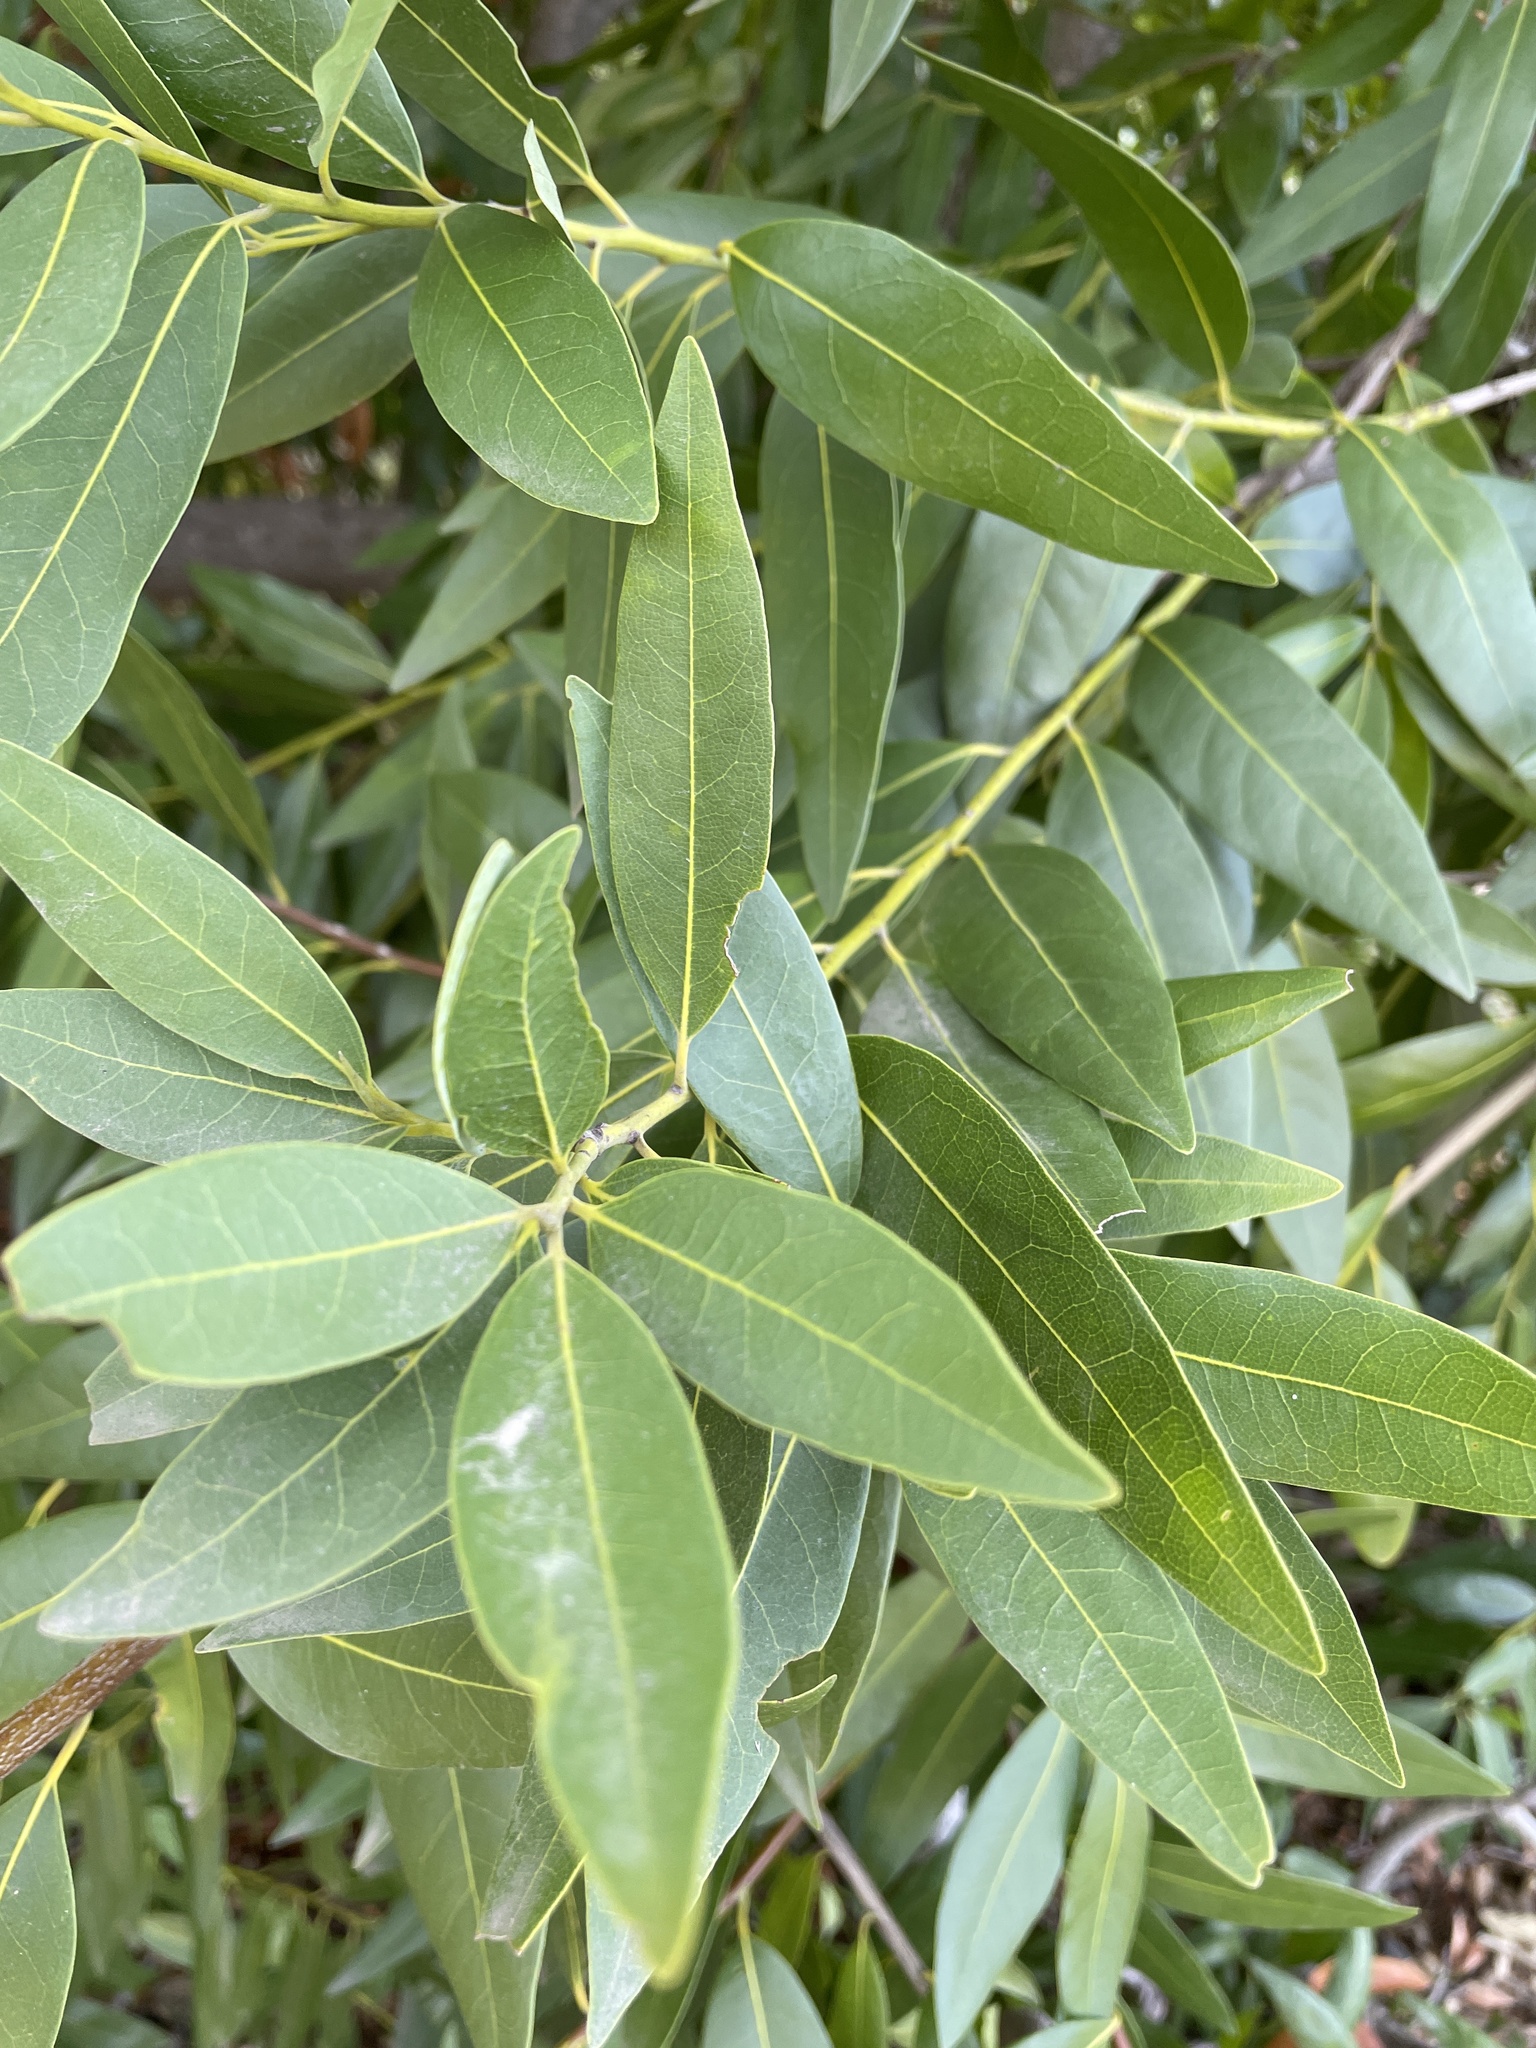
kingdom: Plantae
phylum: Tracheophyta
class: Magnoliopsida
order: Laurales
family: Lauraceae
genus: Umbellularia
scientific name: Umbellularia californica
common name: California bay
